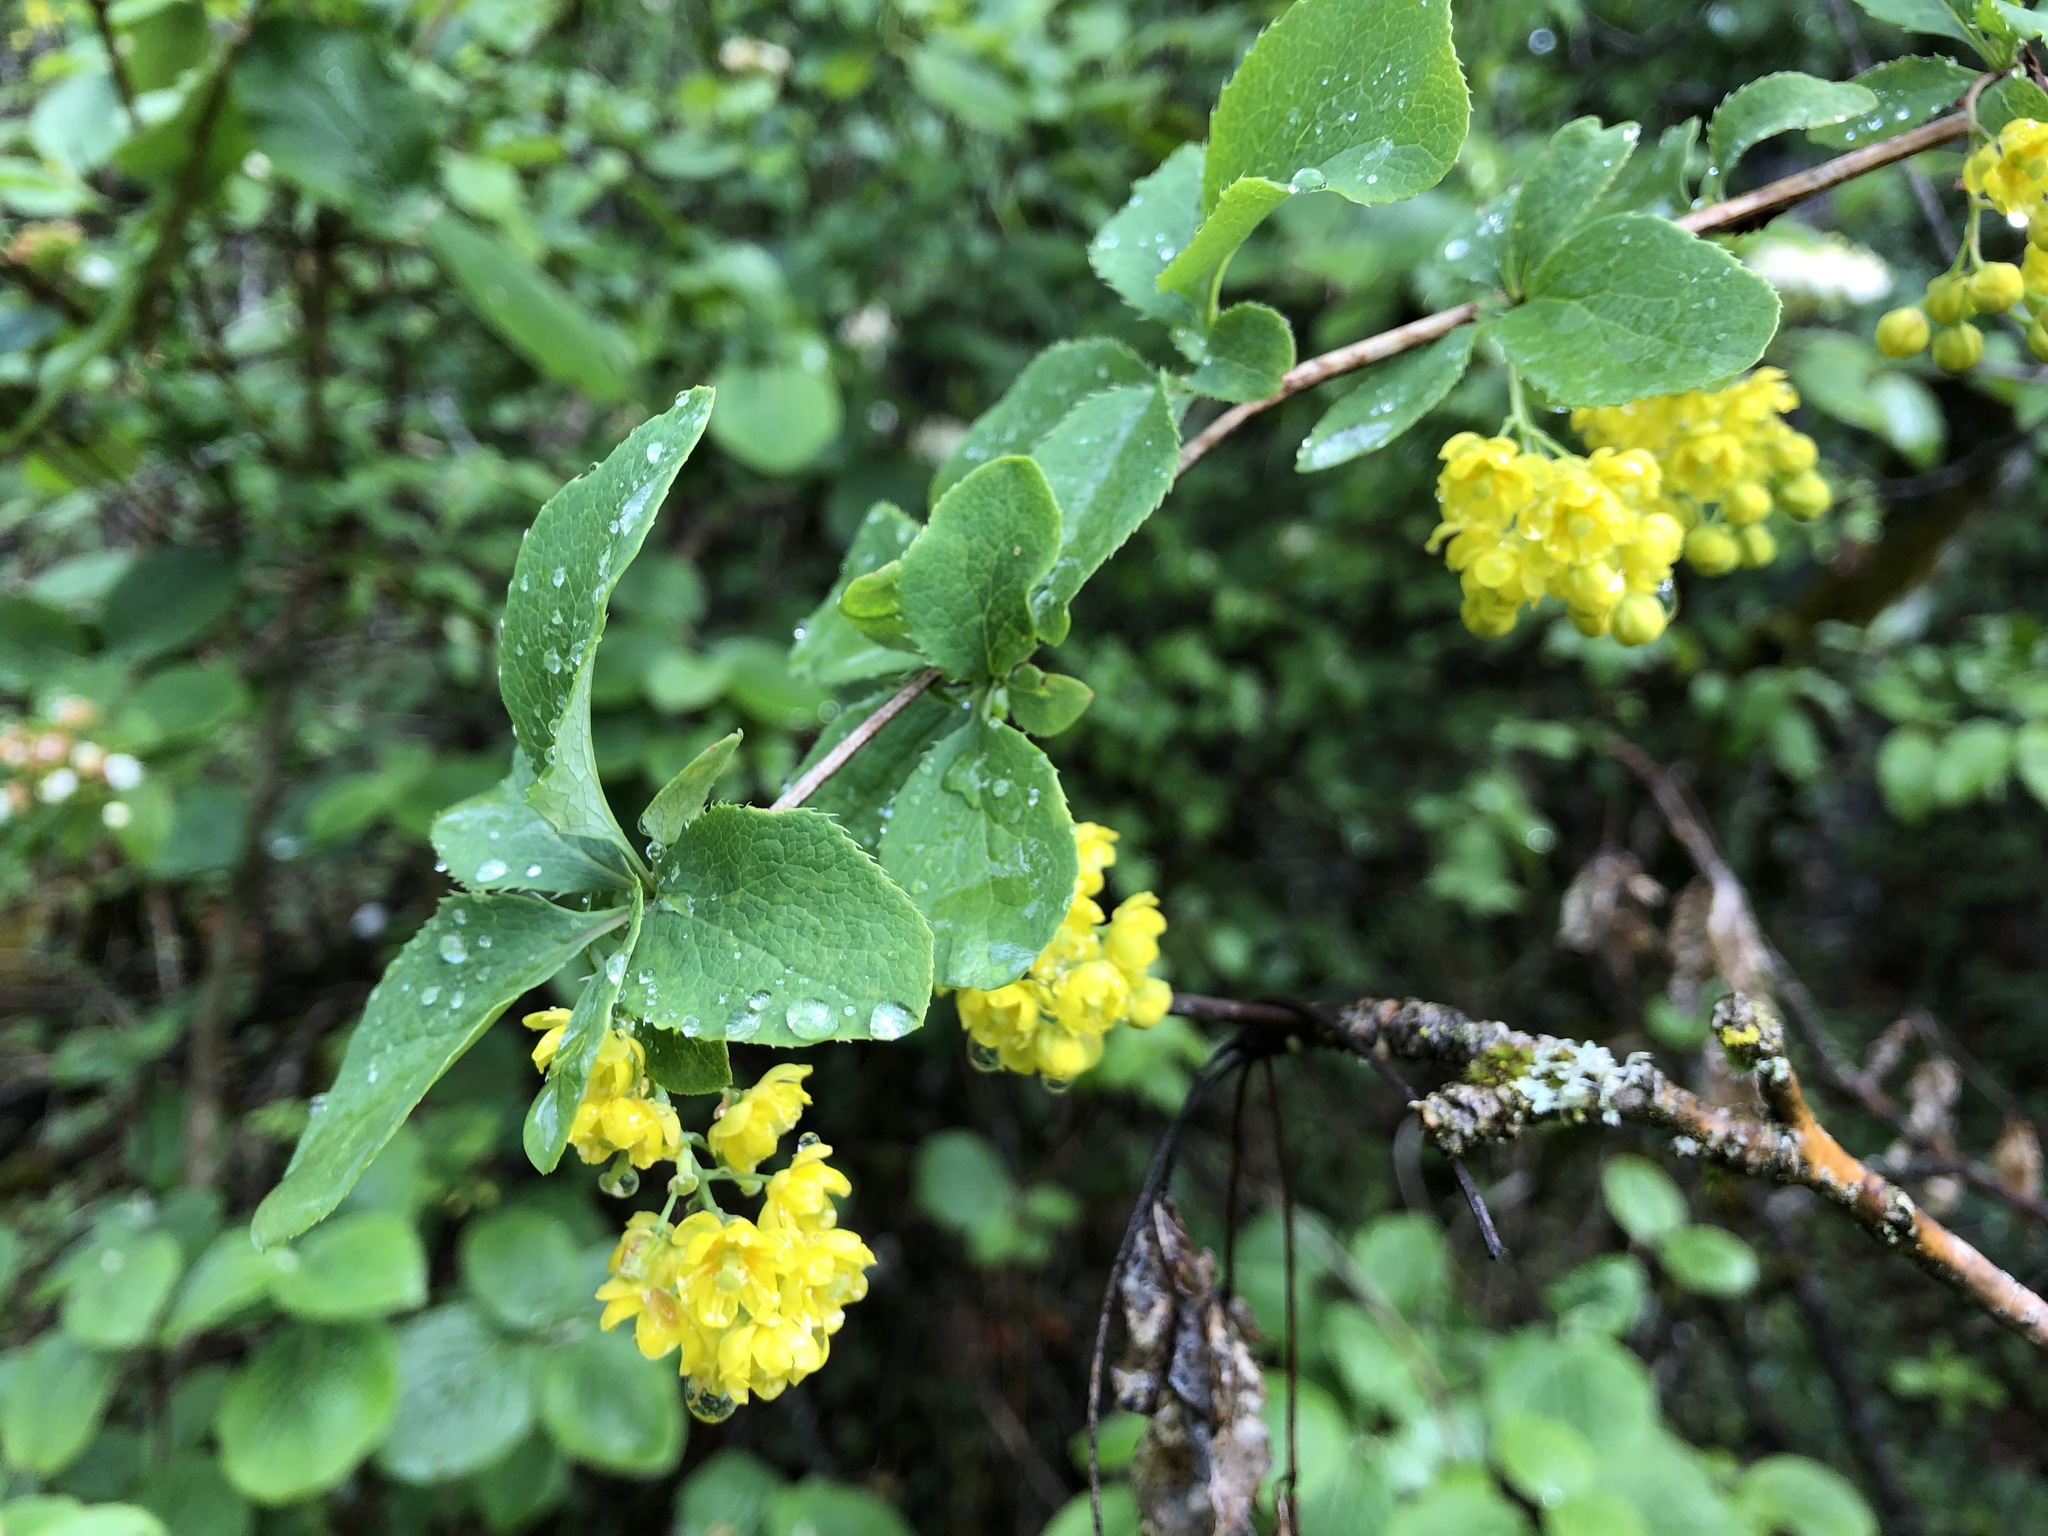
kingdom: Plantae
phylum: Tracheophyta
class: Magnoliopsida
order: Ranunculales
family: Berberidaceae
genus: Berberis
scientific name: Berberis vulgaris
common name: Barberry
